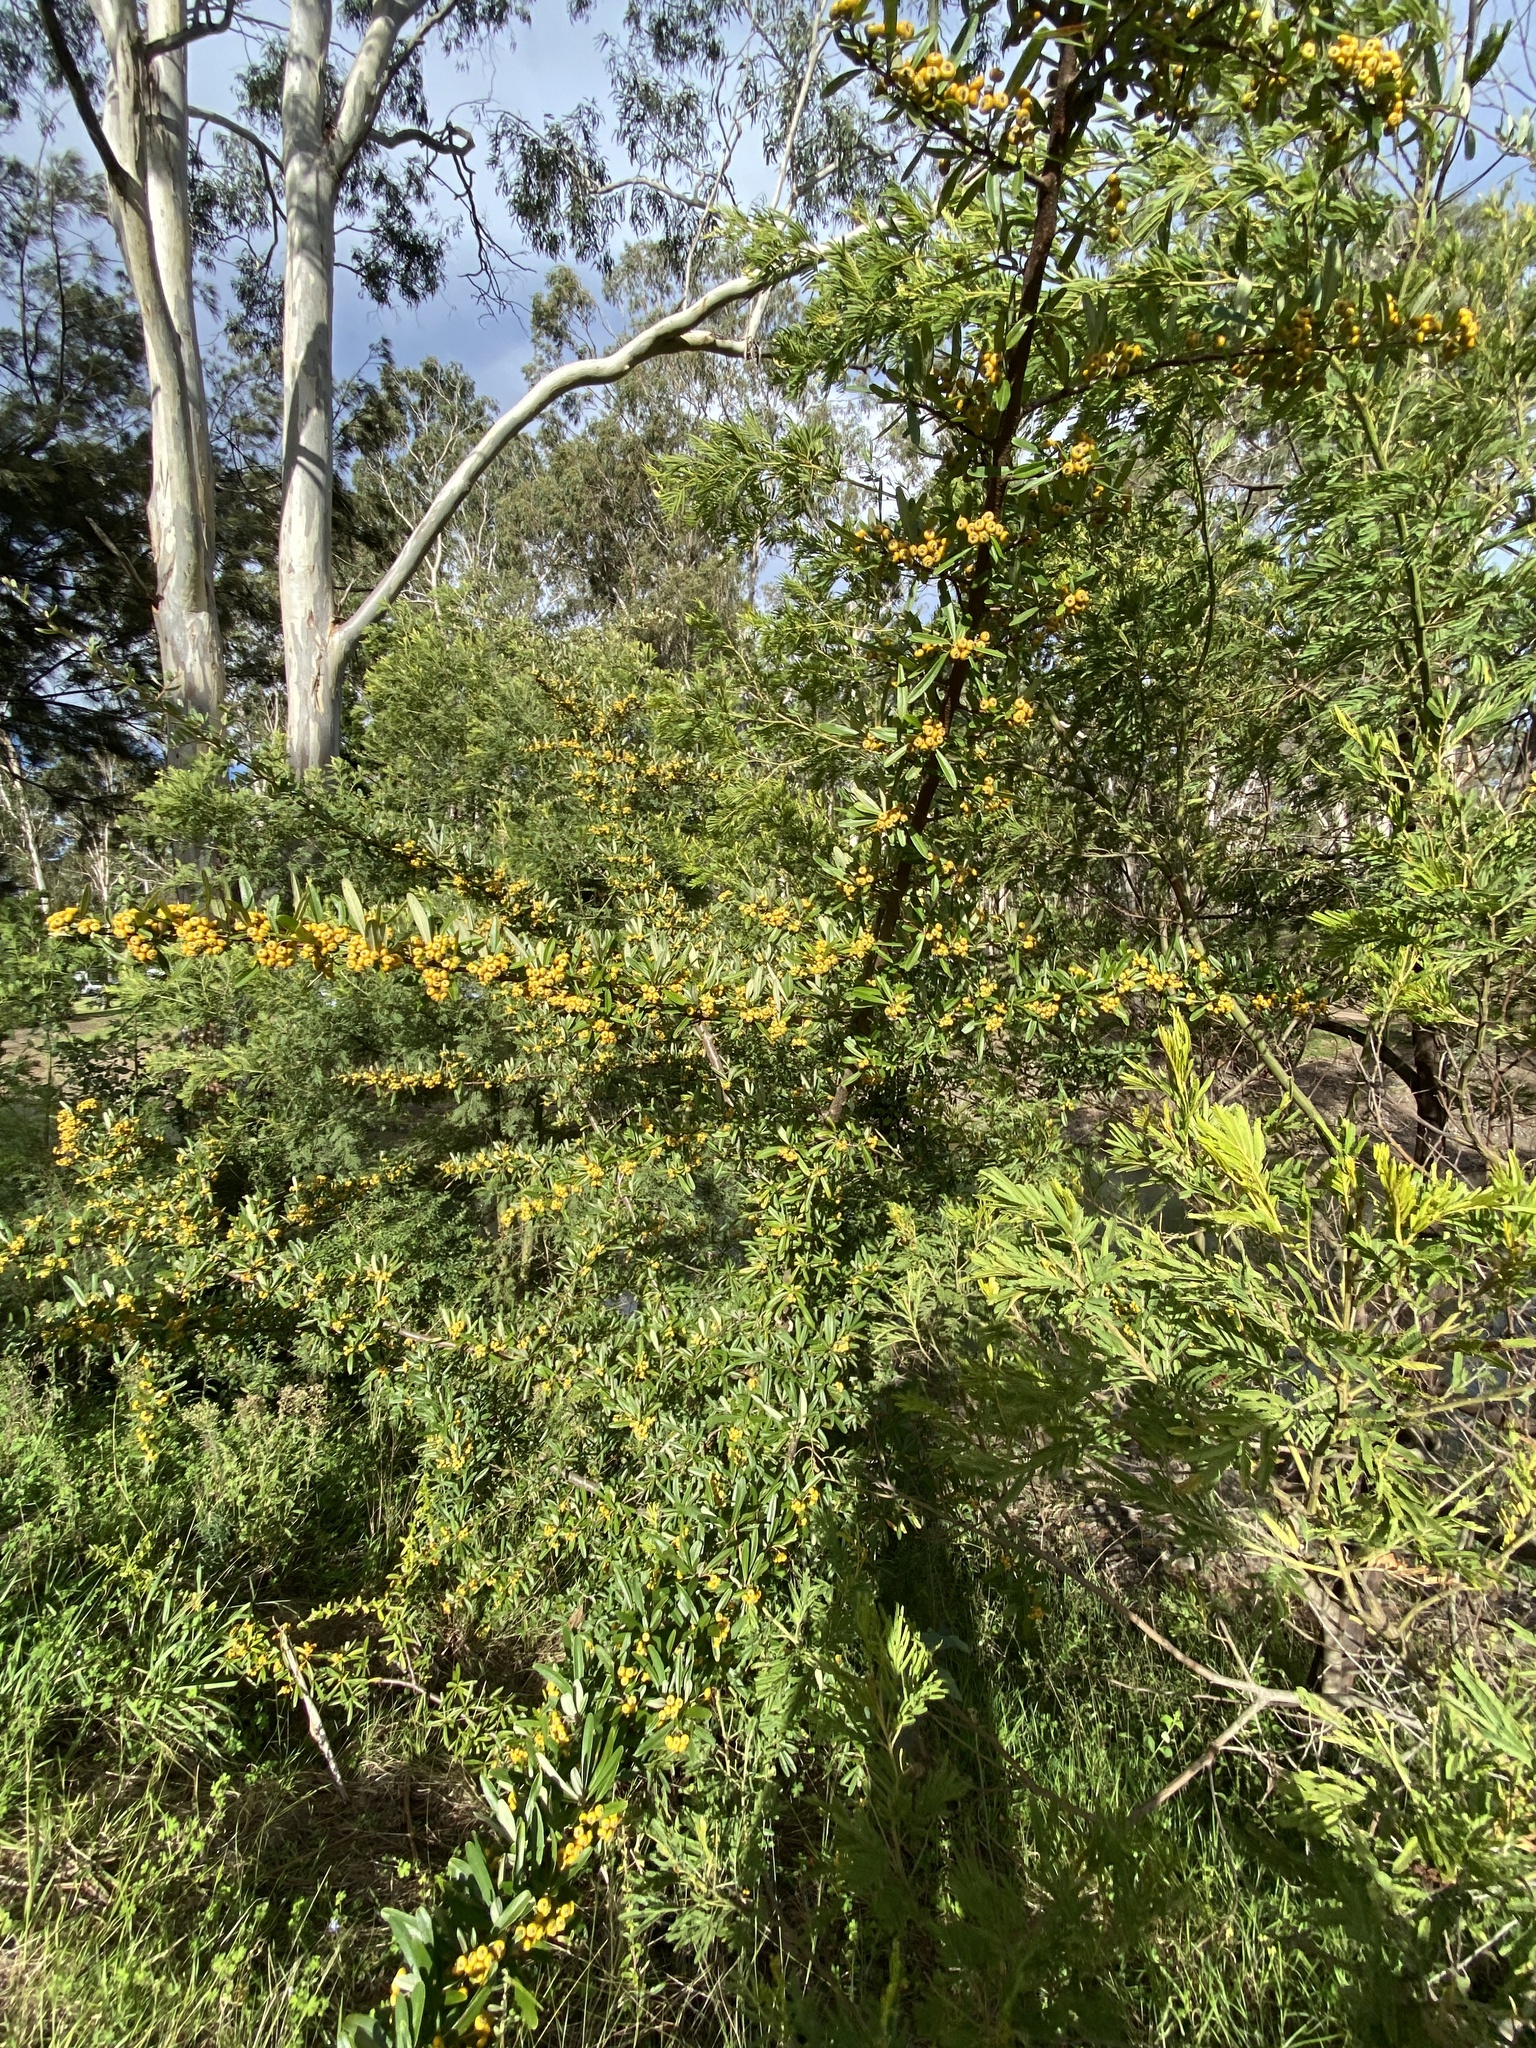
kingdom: Plantae
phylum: Tracheophyta
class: Magnoliopsida
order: Rosales
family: Rosaceae
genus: Pyracantha
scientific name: Pyracantha angustifolia
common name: Narrowleaf firethorn
